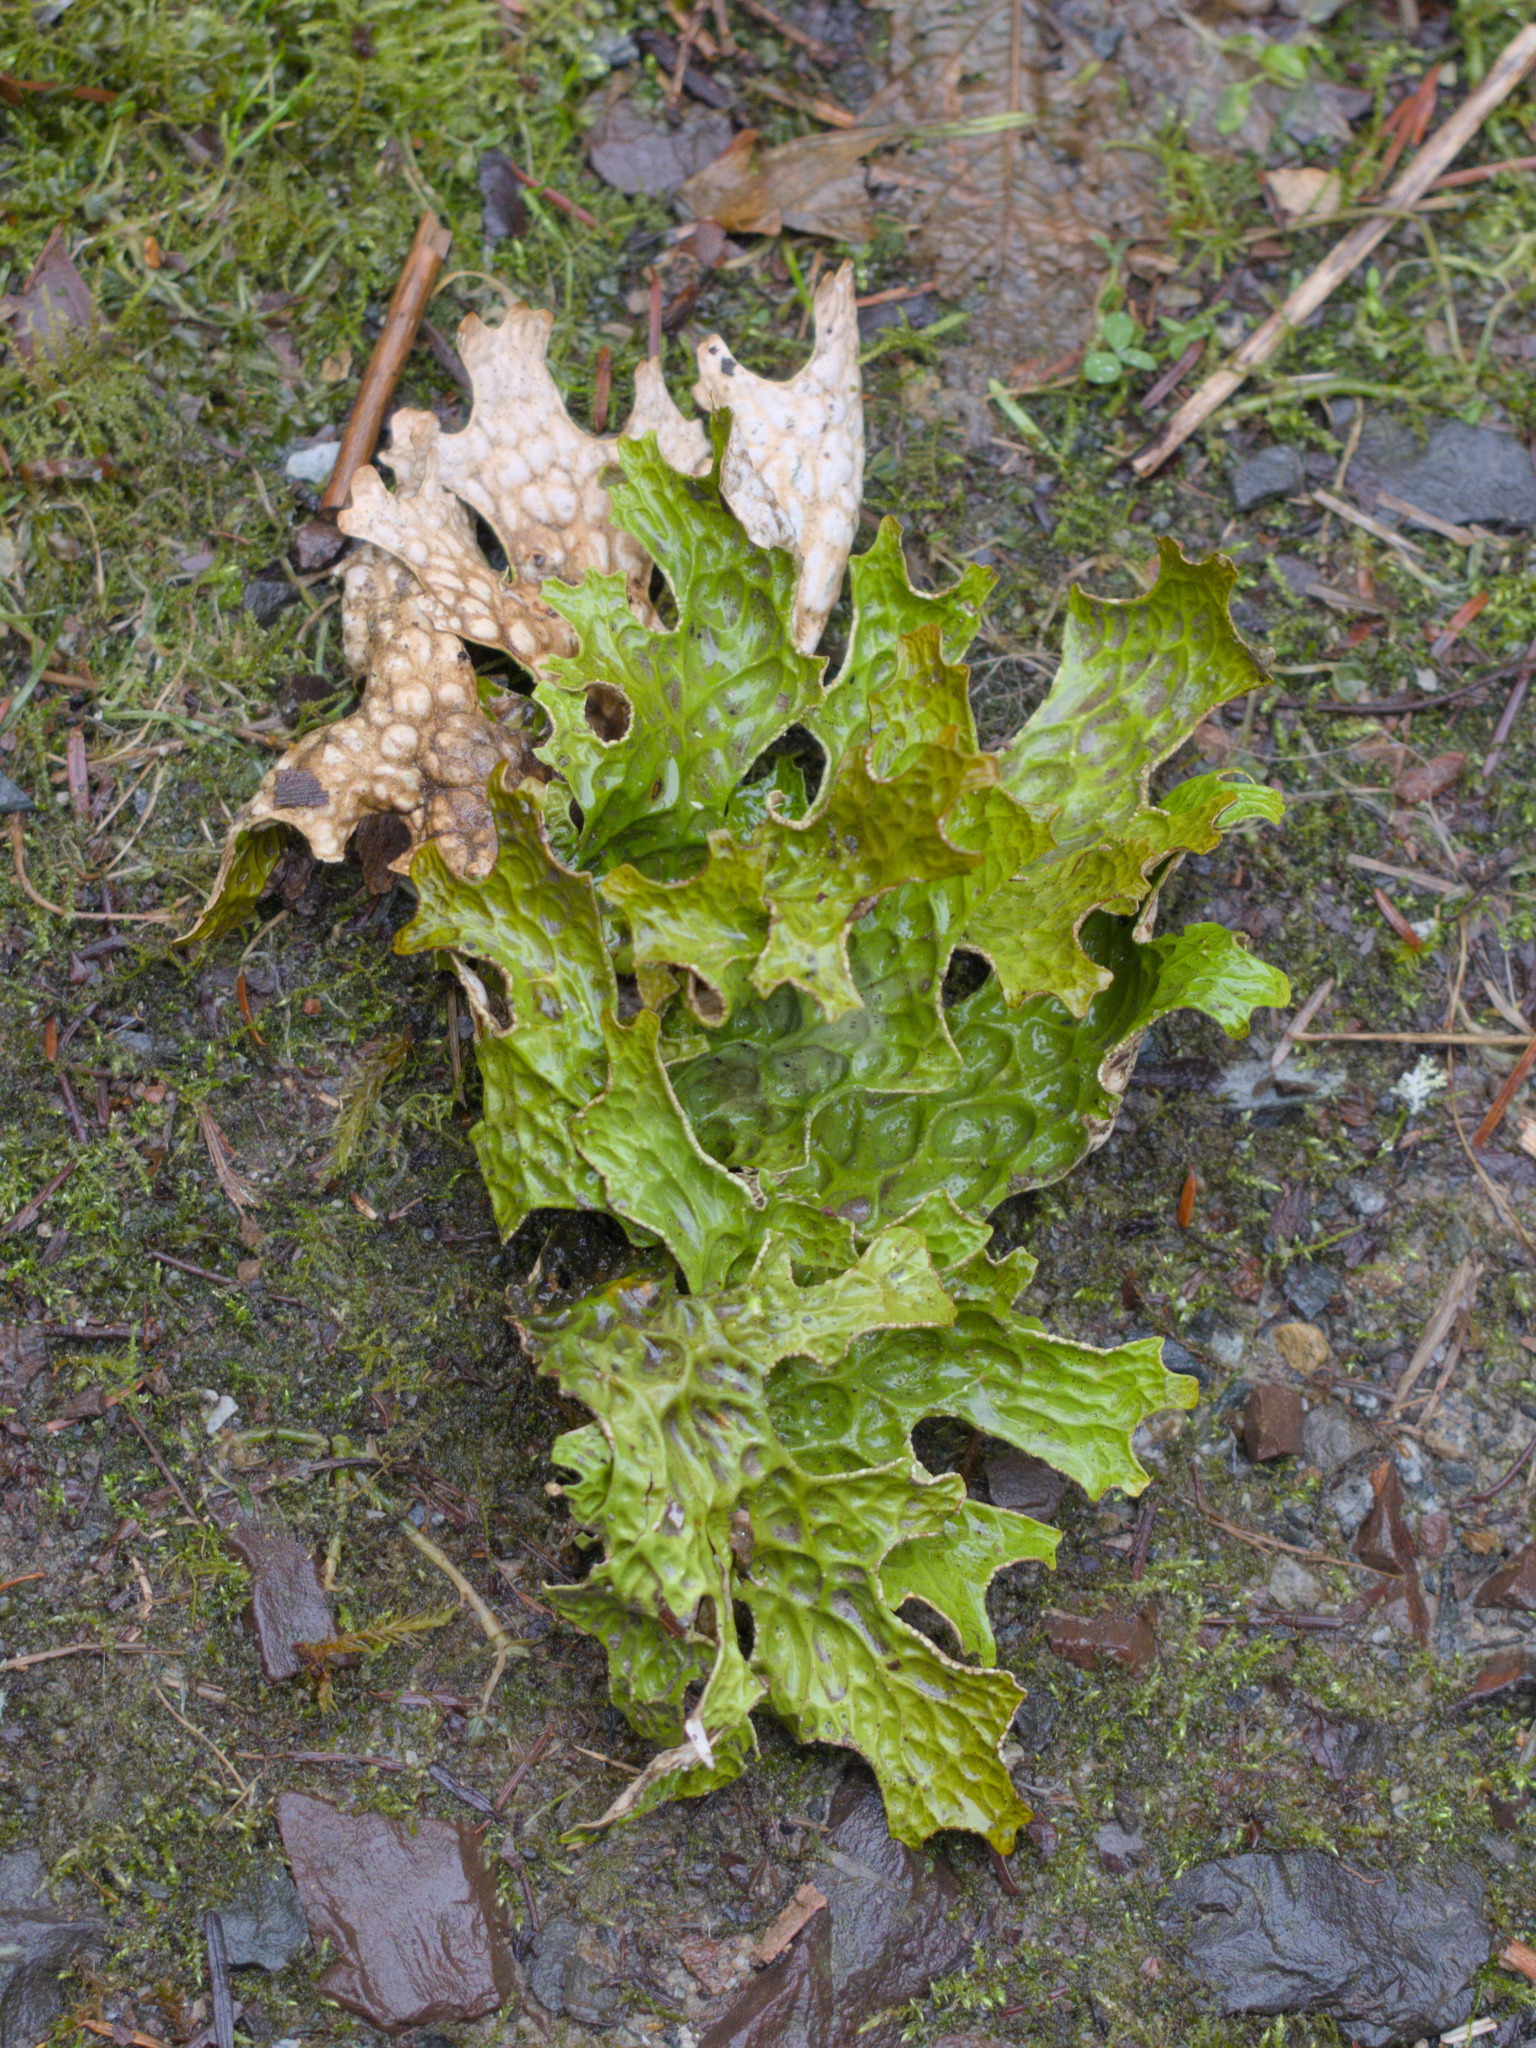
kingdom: Fungi
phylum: Ascomycota
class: Lecanoromycetes
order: Peltigerales
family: Lobariaceae
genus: Lobaria
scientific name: Lobaria pulmonaria
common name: Lungwort
